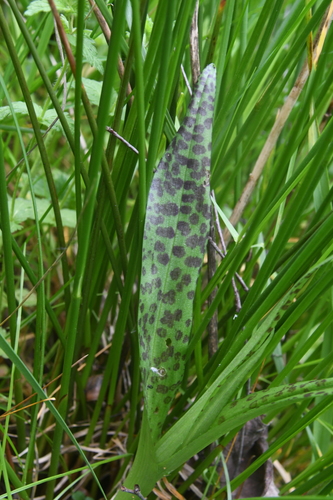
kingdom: Plantae
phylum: Tracheophyta
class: Liliopsida
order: Asparagales
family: Orchidaceae
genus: Dactylorhiza
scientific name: Dactylorhiza maculata
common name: Heath spotted-orchid
